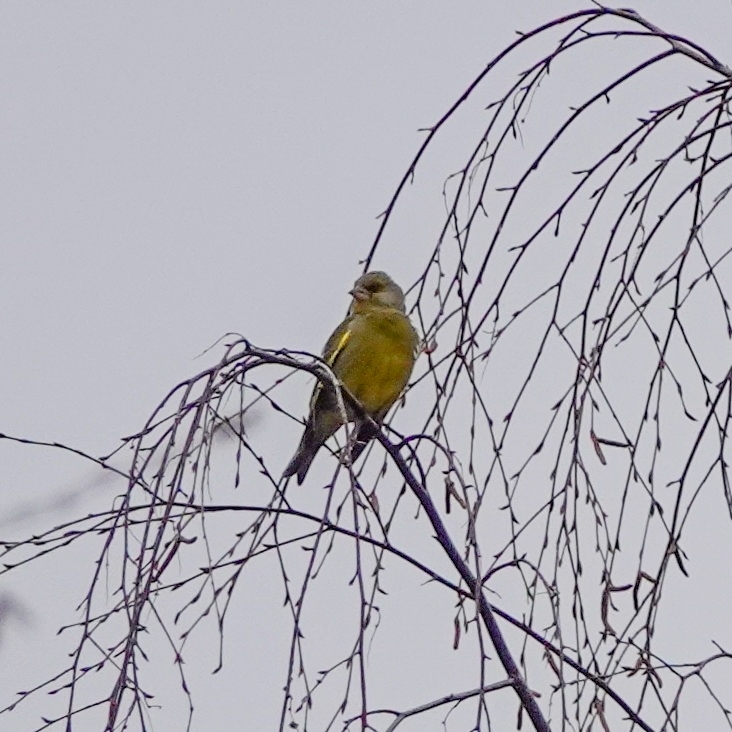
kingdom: Plantae
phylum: Tracheophyta
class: Liliopsida
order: Poales
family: Poaceae
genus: Chloris
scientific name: Chloris chloris
